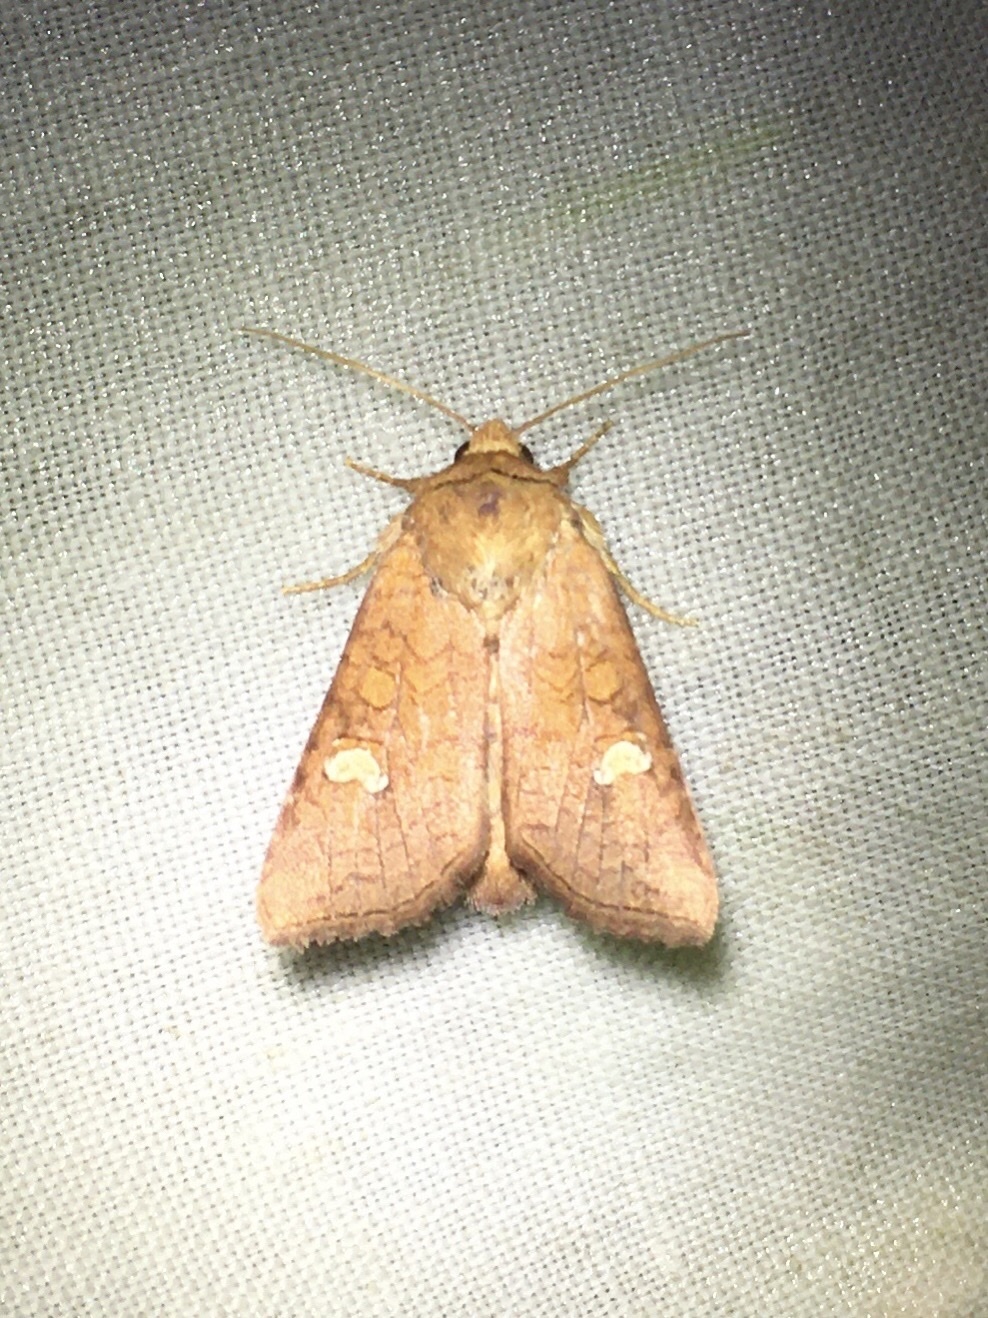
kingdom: Animalia
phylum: Arthropoda
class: Insecta
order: Lepidoptera
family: Noctuidae
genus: Amphipoea
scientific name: Amphipoea americana
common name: American ear moth
